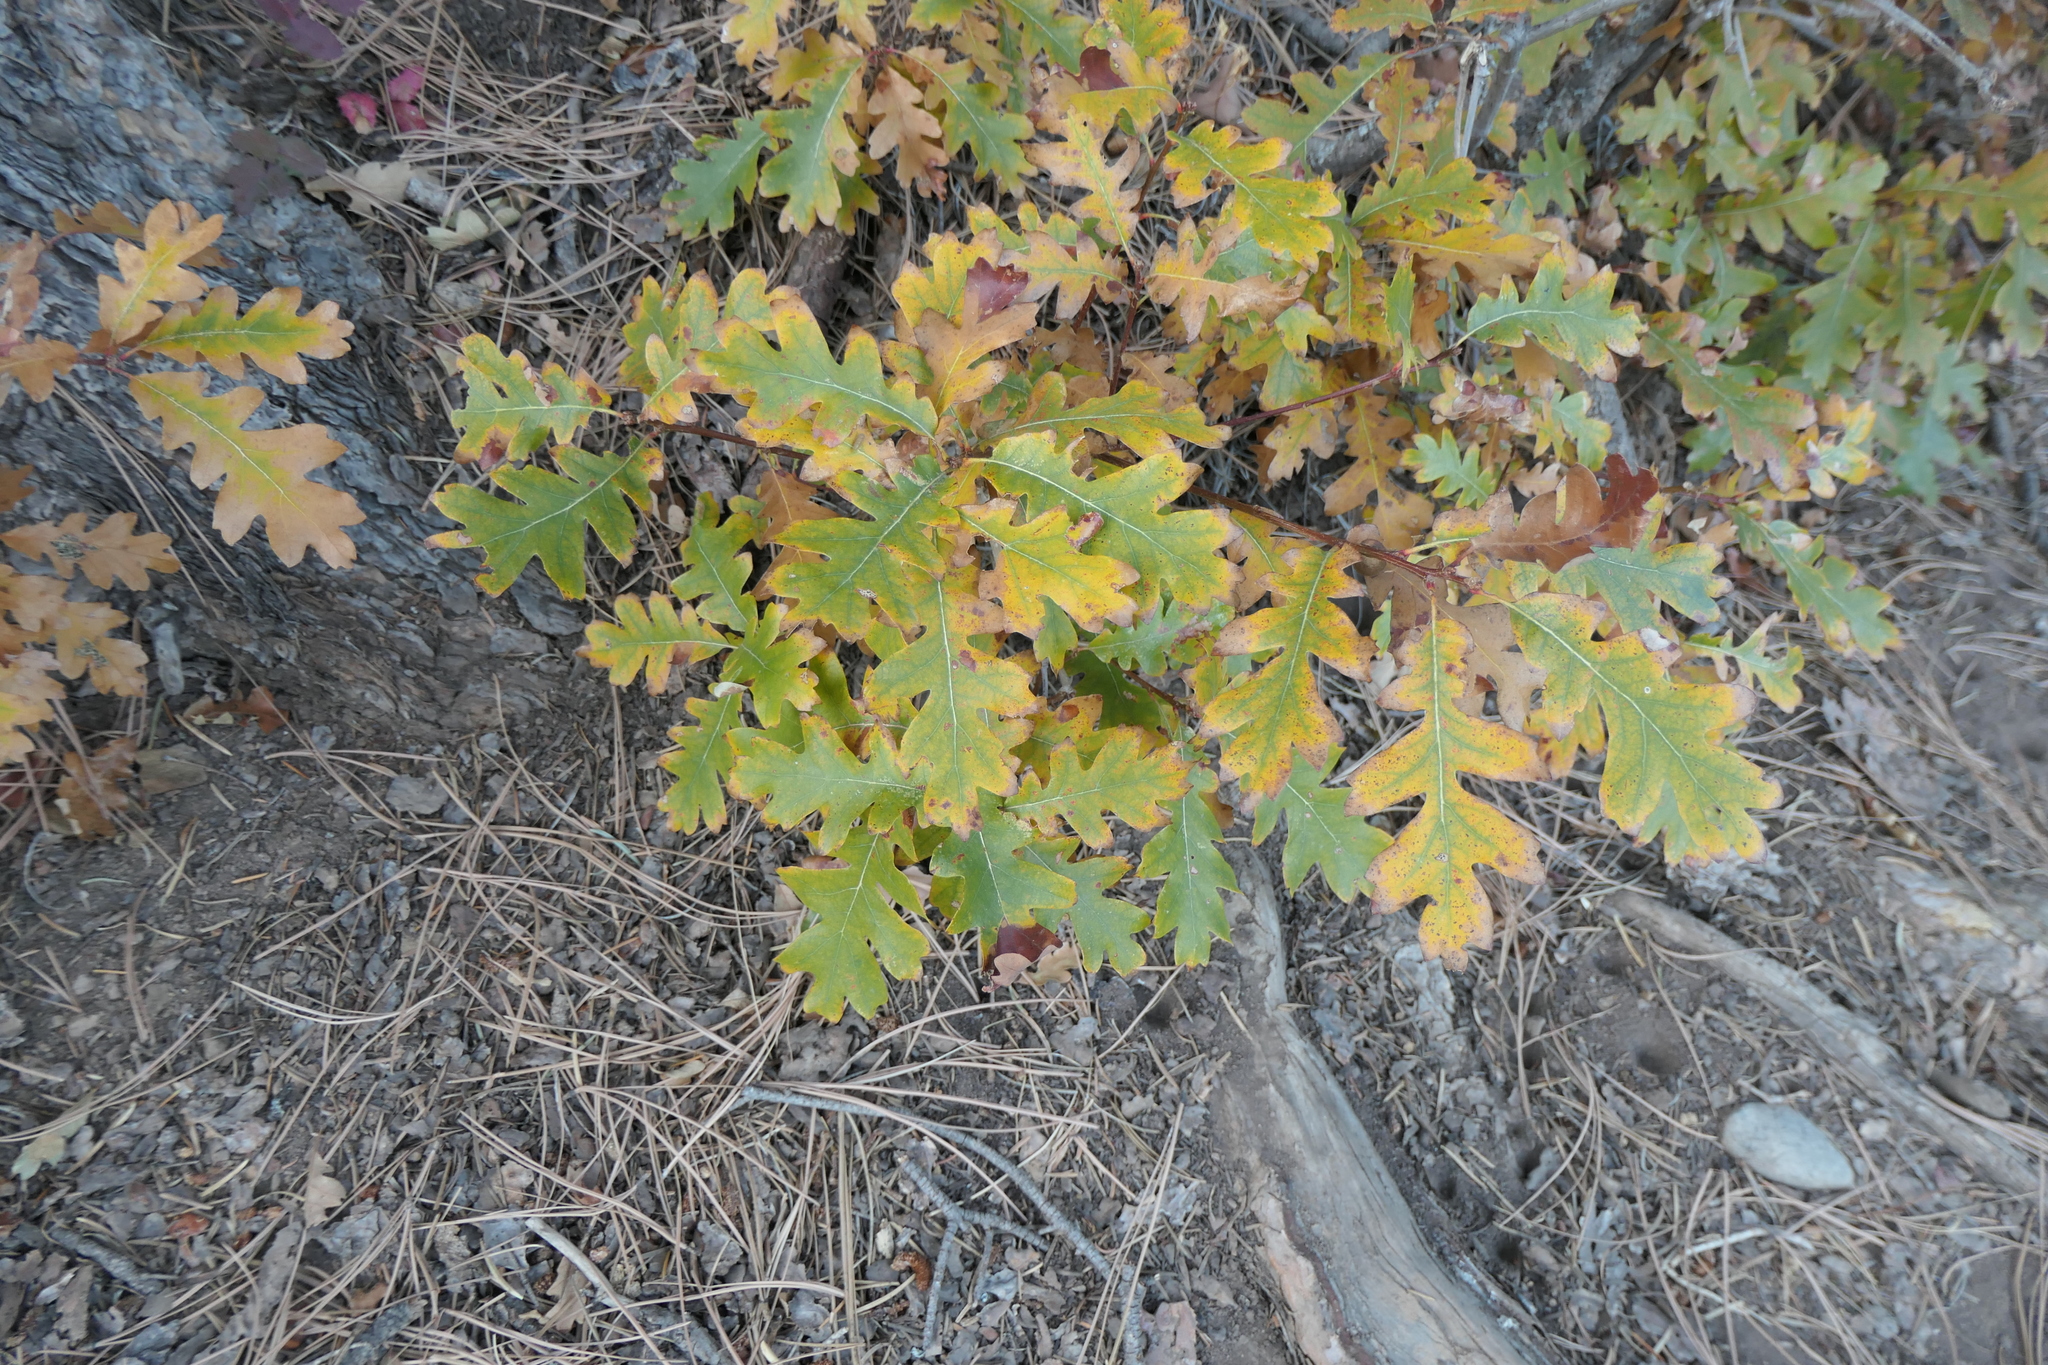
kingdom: Plantae
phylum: Tracheophyta
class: Magnoliopsida
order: Fagales
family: Fagaceae
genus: Quercus
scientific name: Quercus gambelii
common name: Gambel oak
